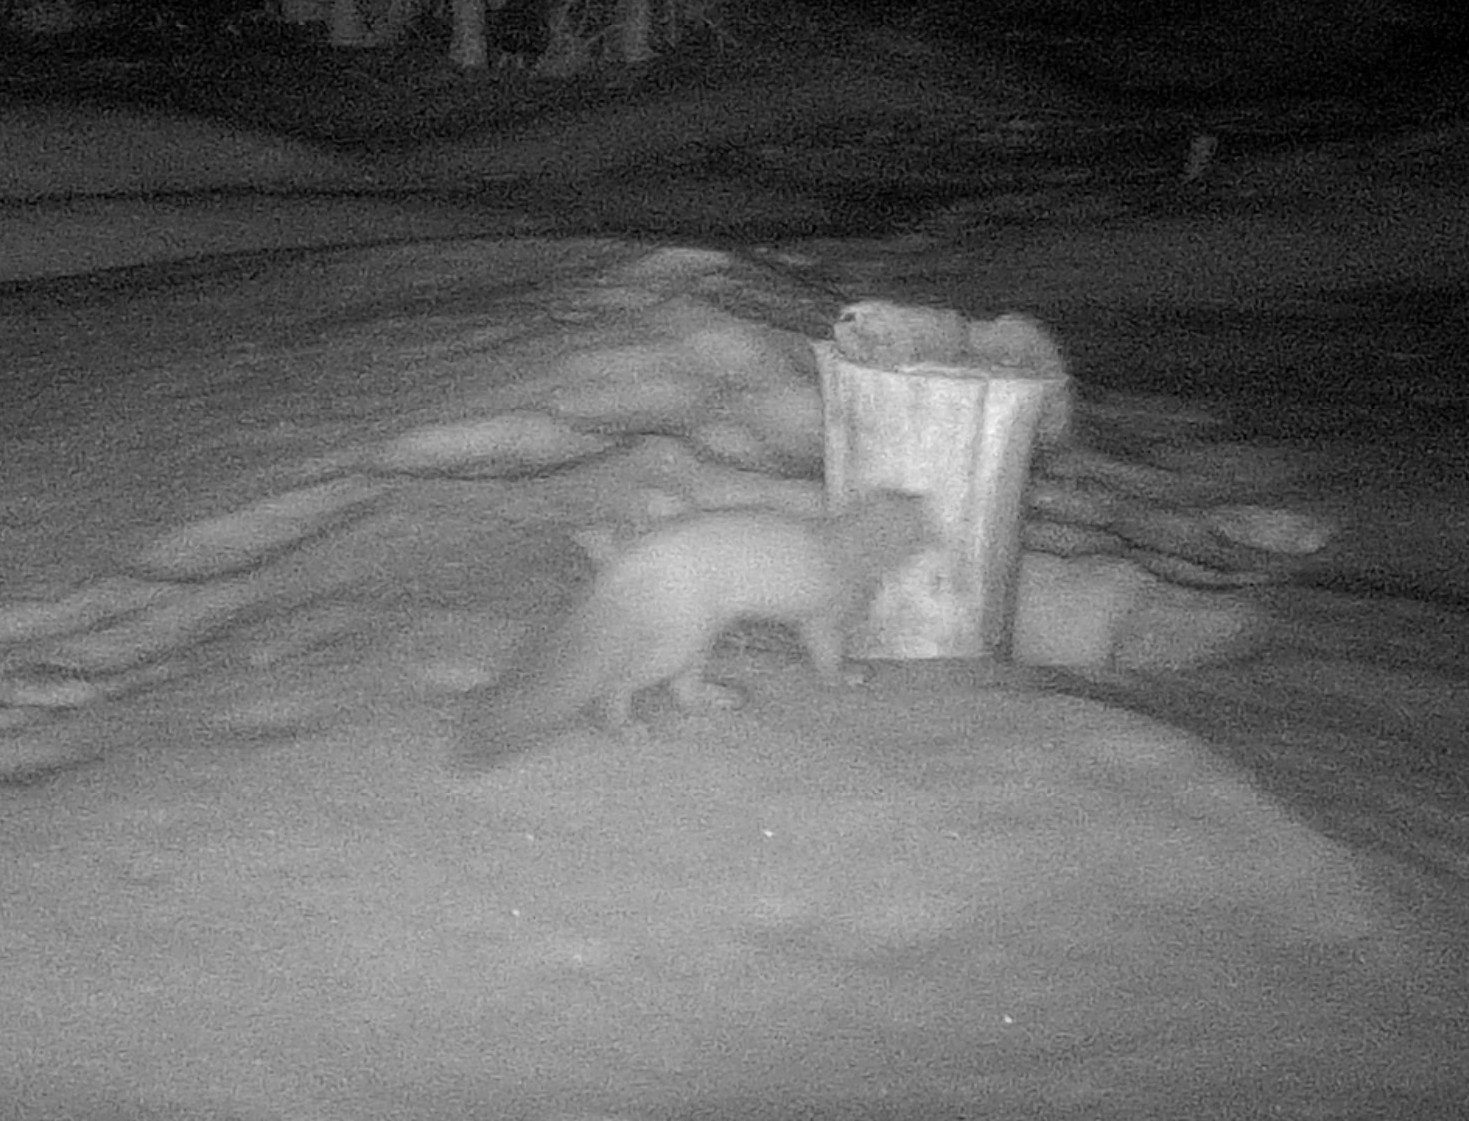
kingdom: Animalia
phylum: Chordata
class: Mammalia
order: Carnivora
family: Mustelidae
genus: Martes
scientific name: Martes martes
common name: European pine marten
